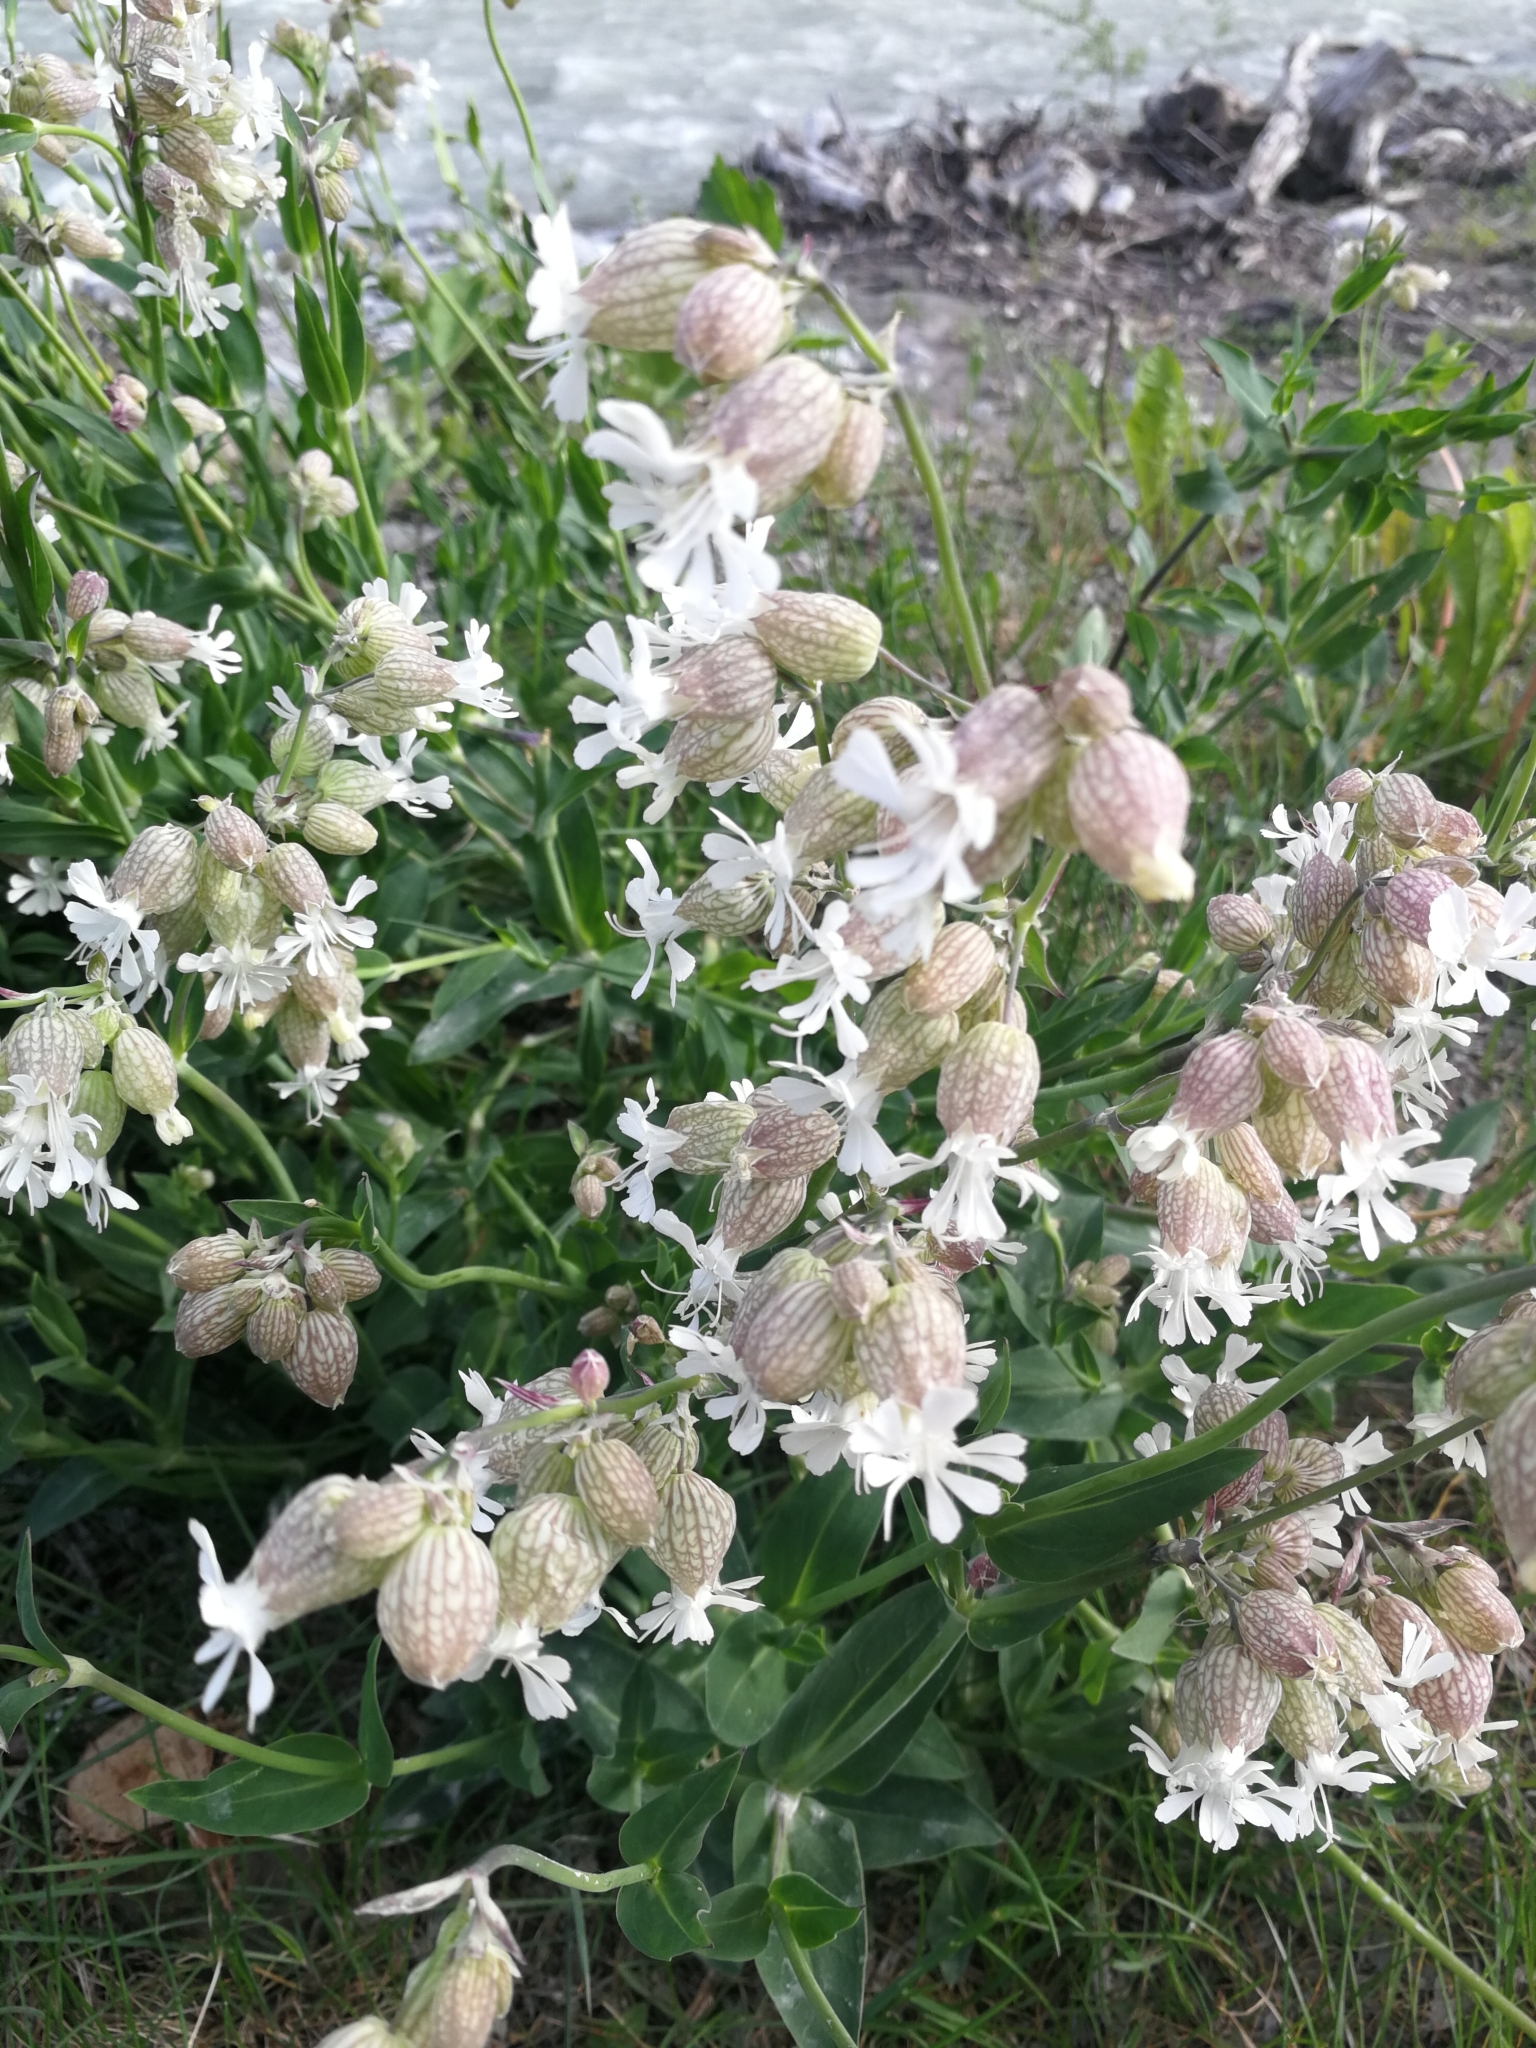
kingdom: Plantae
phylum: Tracheophyta
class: Magnoliopsida
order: Caryophyllales
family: Caryophyllaceae
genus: Silene
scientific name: Silene vulgaris
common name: Bladder campion
